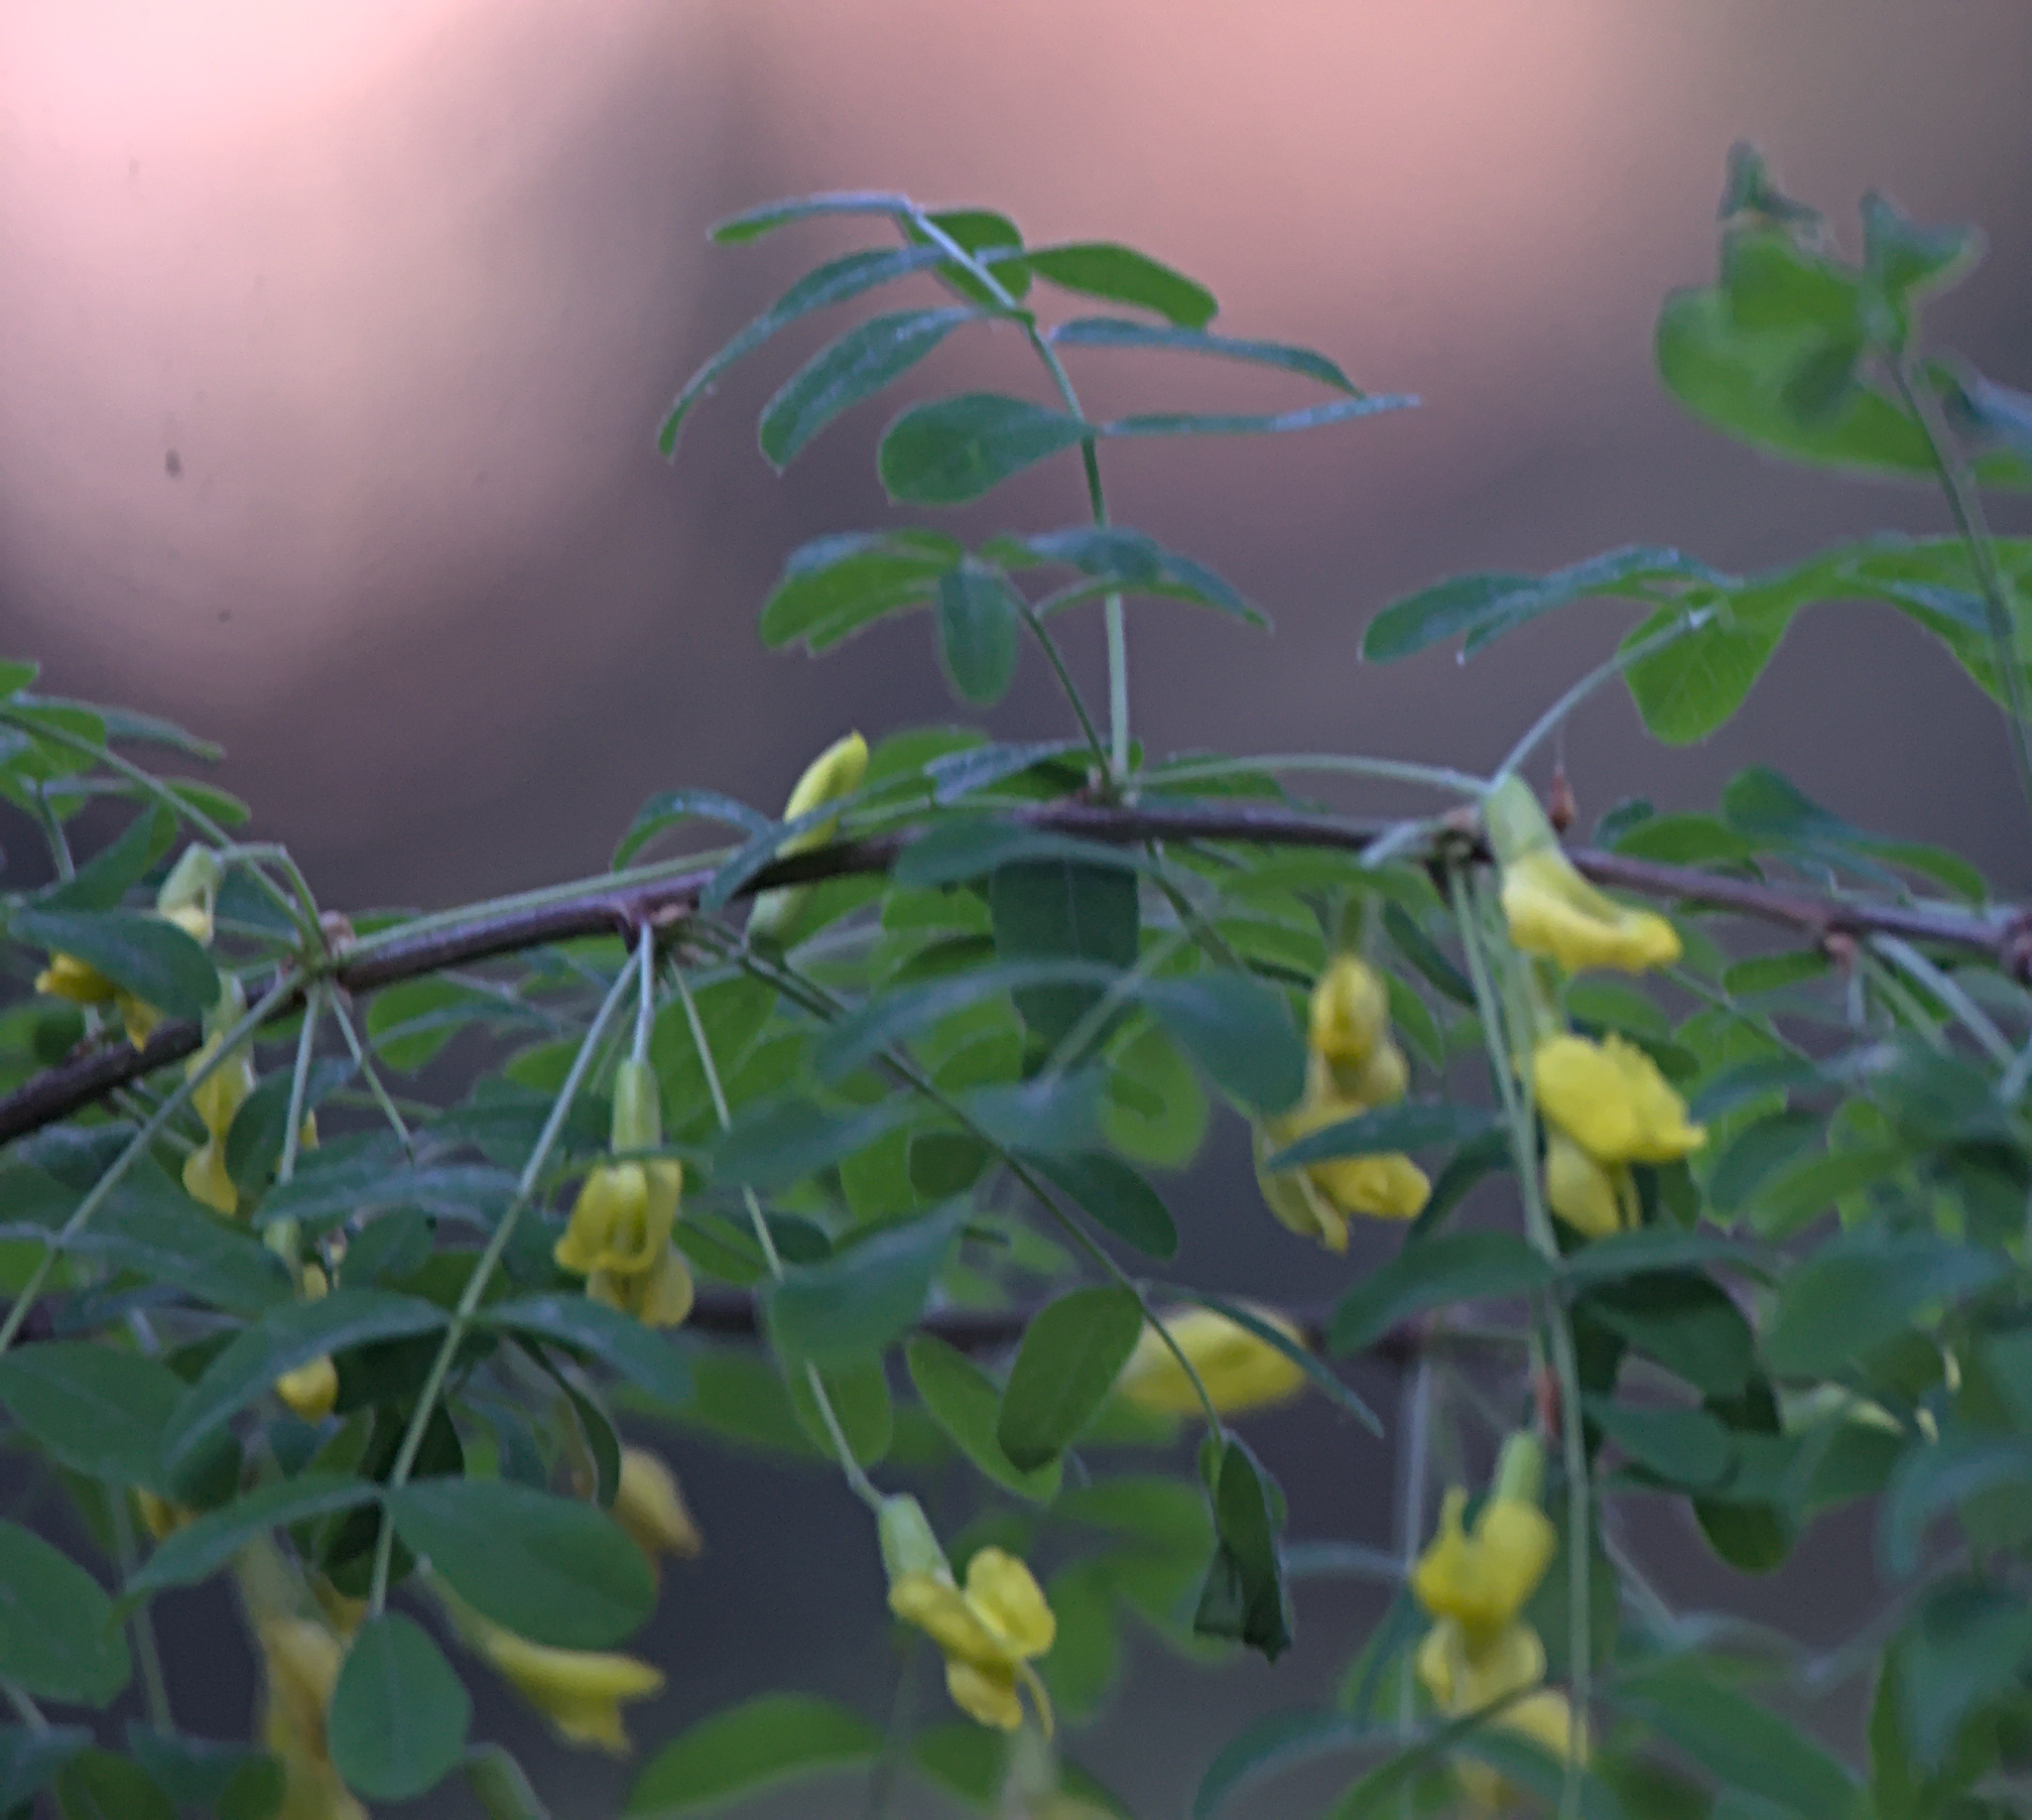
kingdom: Plantae
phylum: Tracheophyta
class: Magnoliopsida
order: Fabales
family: Fabaceae
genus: Caragana
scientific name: Caragana arborescens
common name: Siberian peashrub
